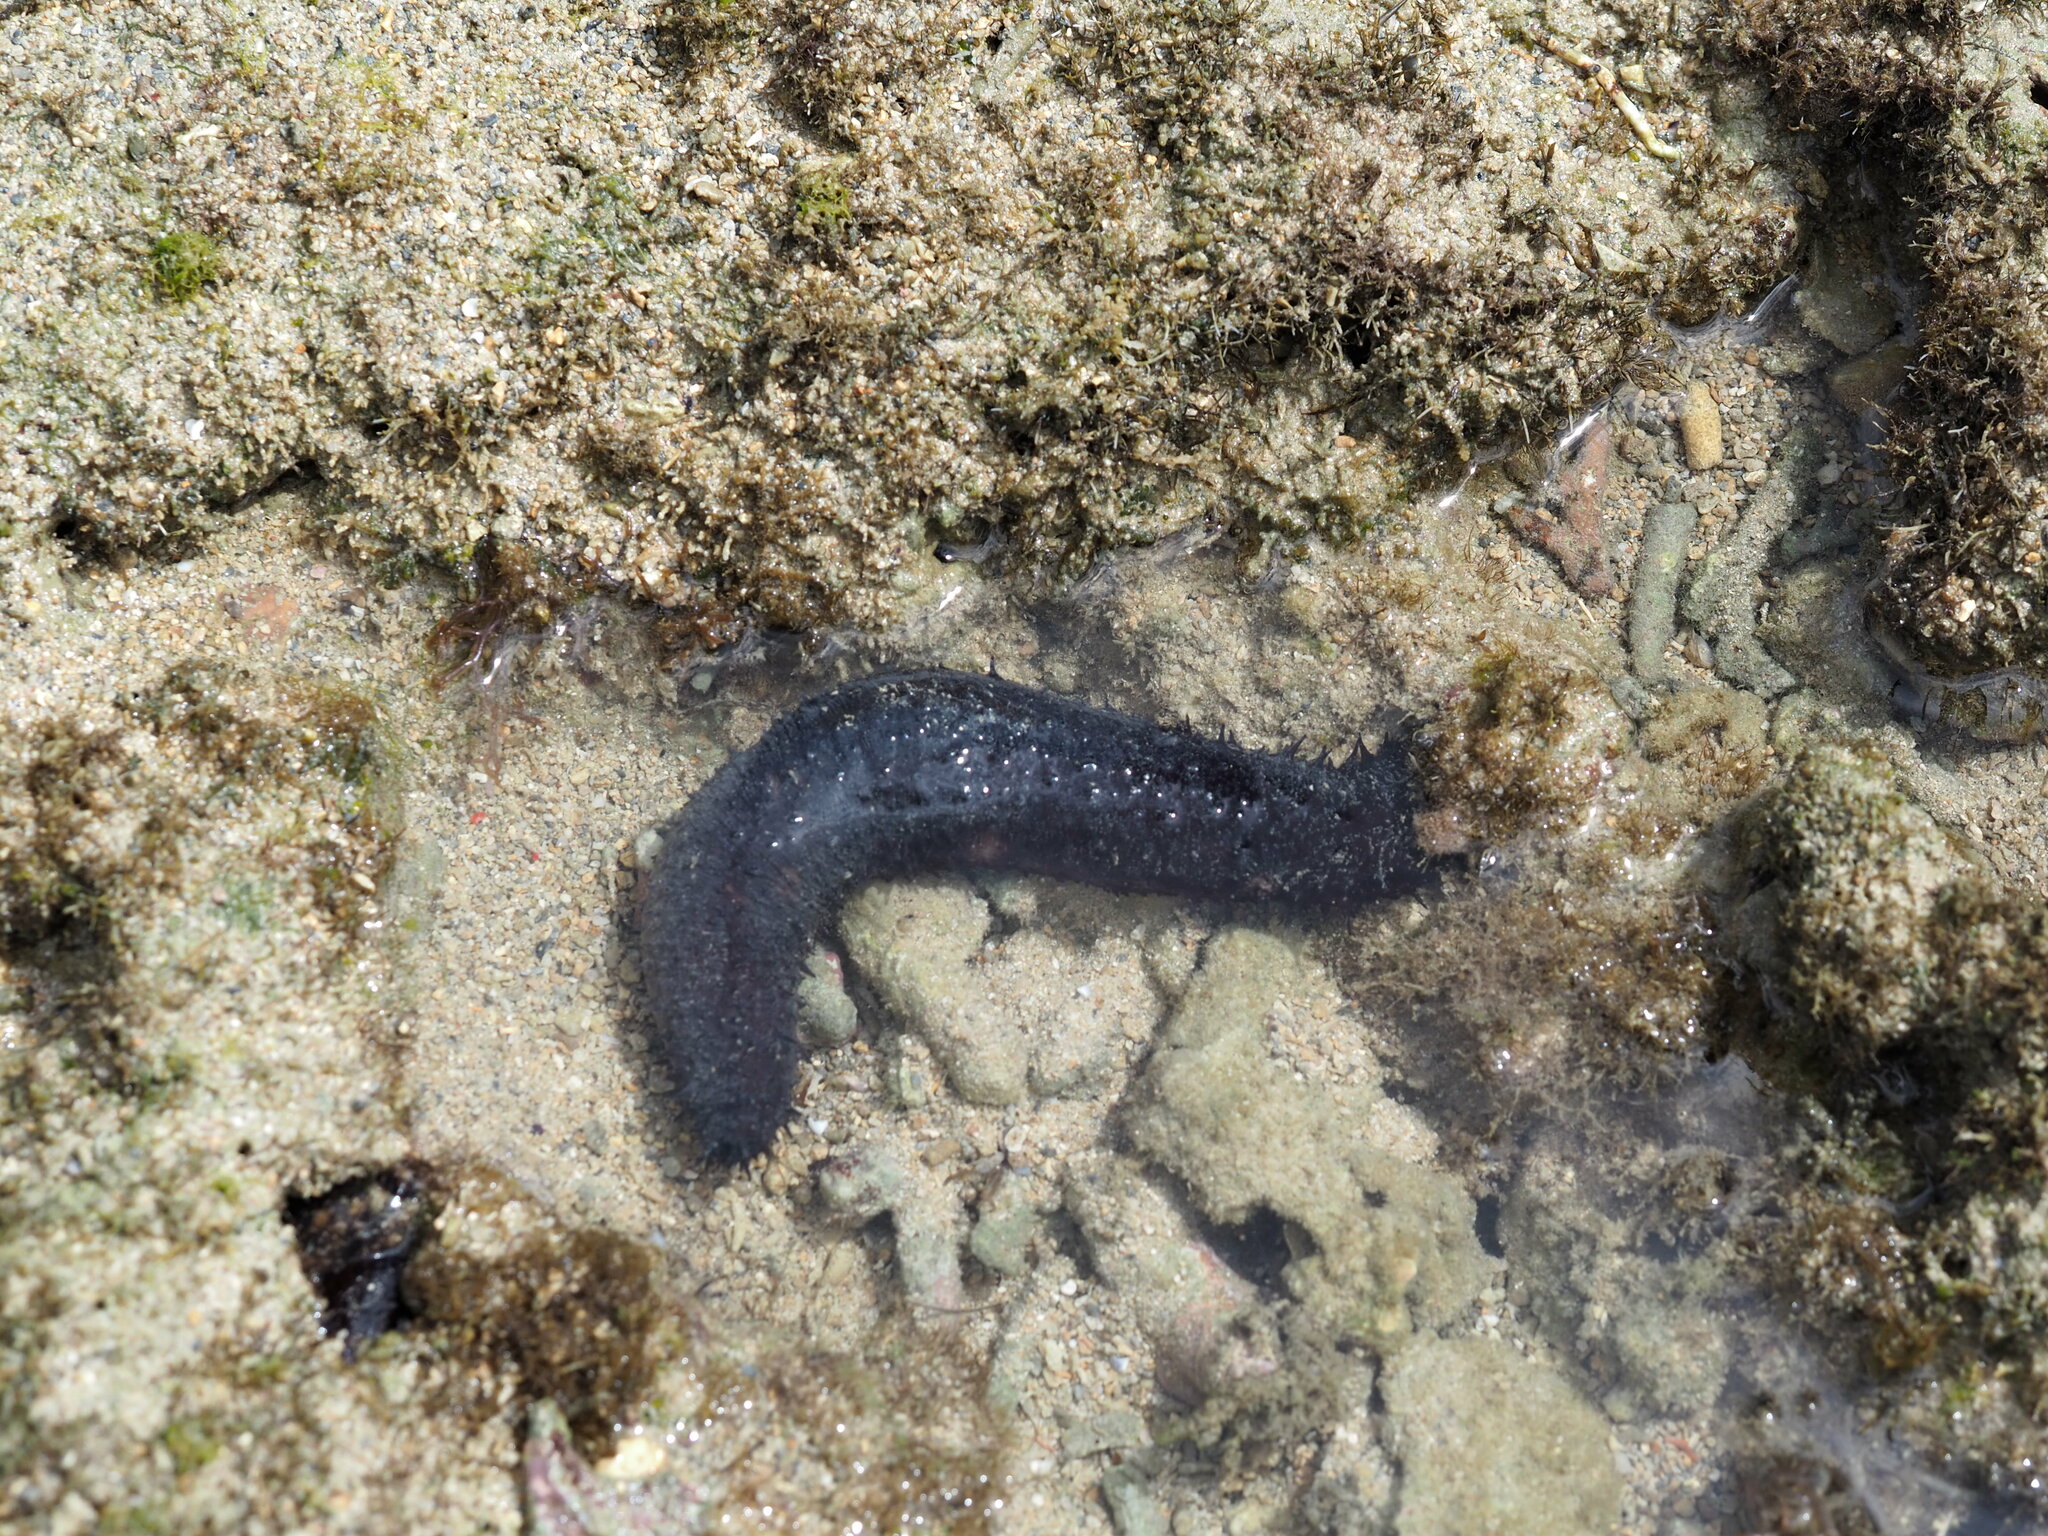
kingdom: Animalia
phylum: Echinodermata
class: Holothuroidea
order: Holothuriida
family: Holothuriidae
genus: Holothuria
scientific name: Holothuria leucospilota
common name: White thread fish
